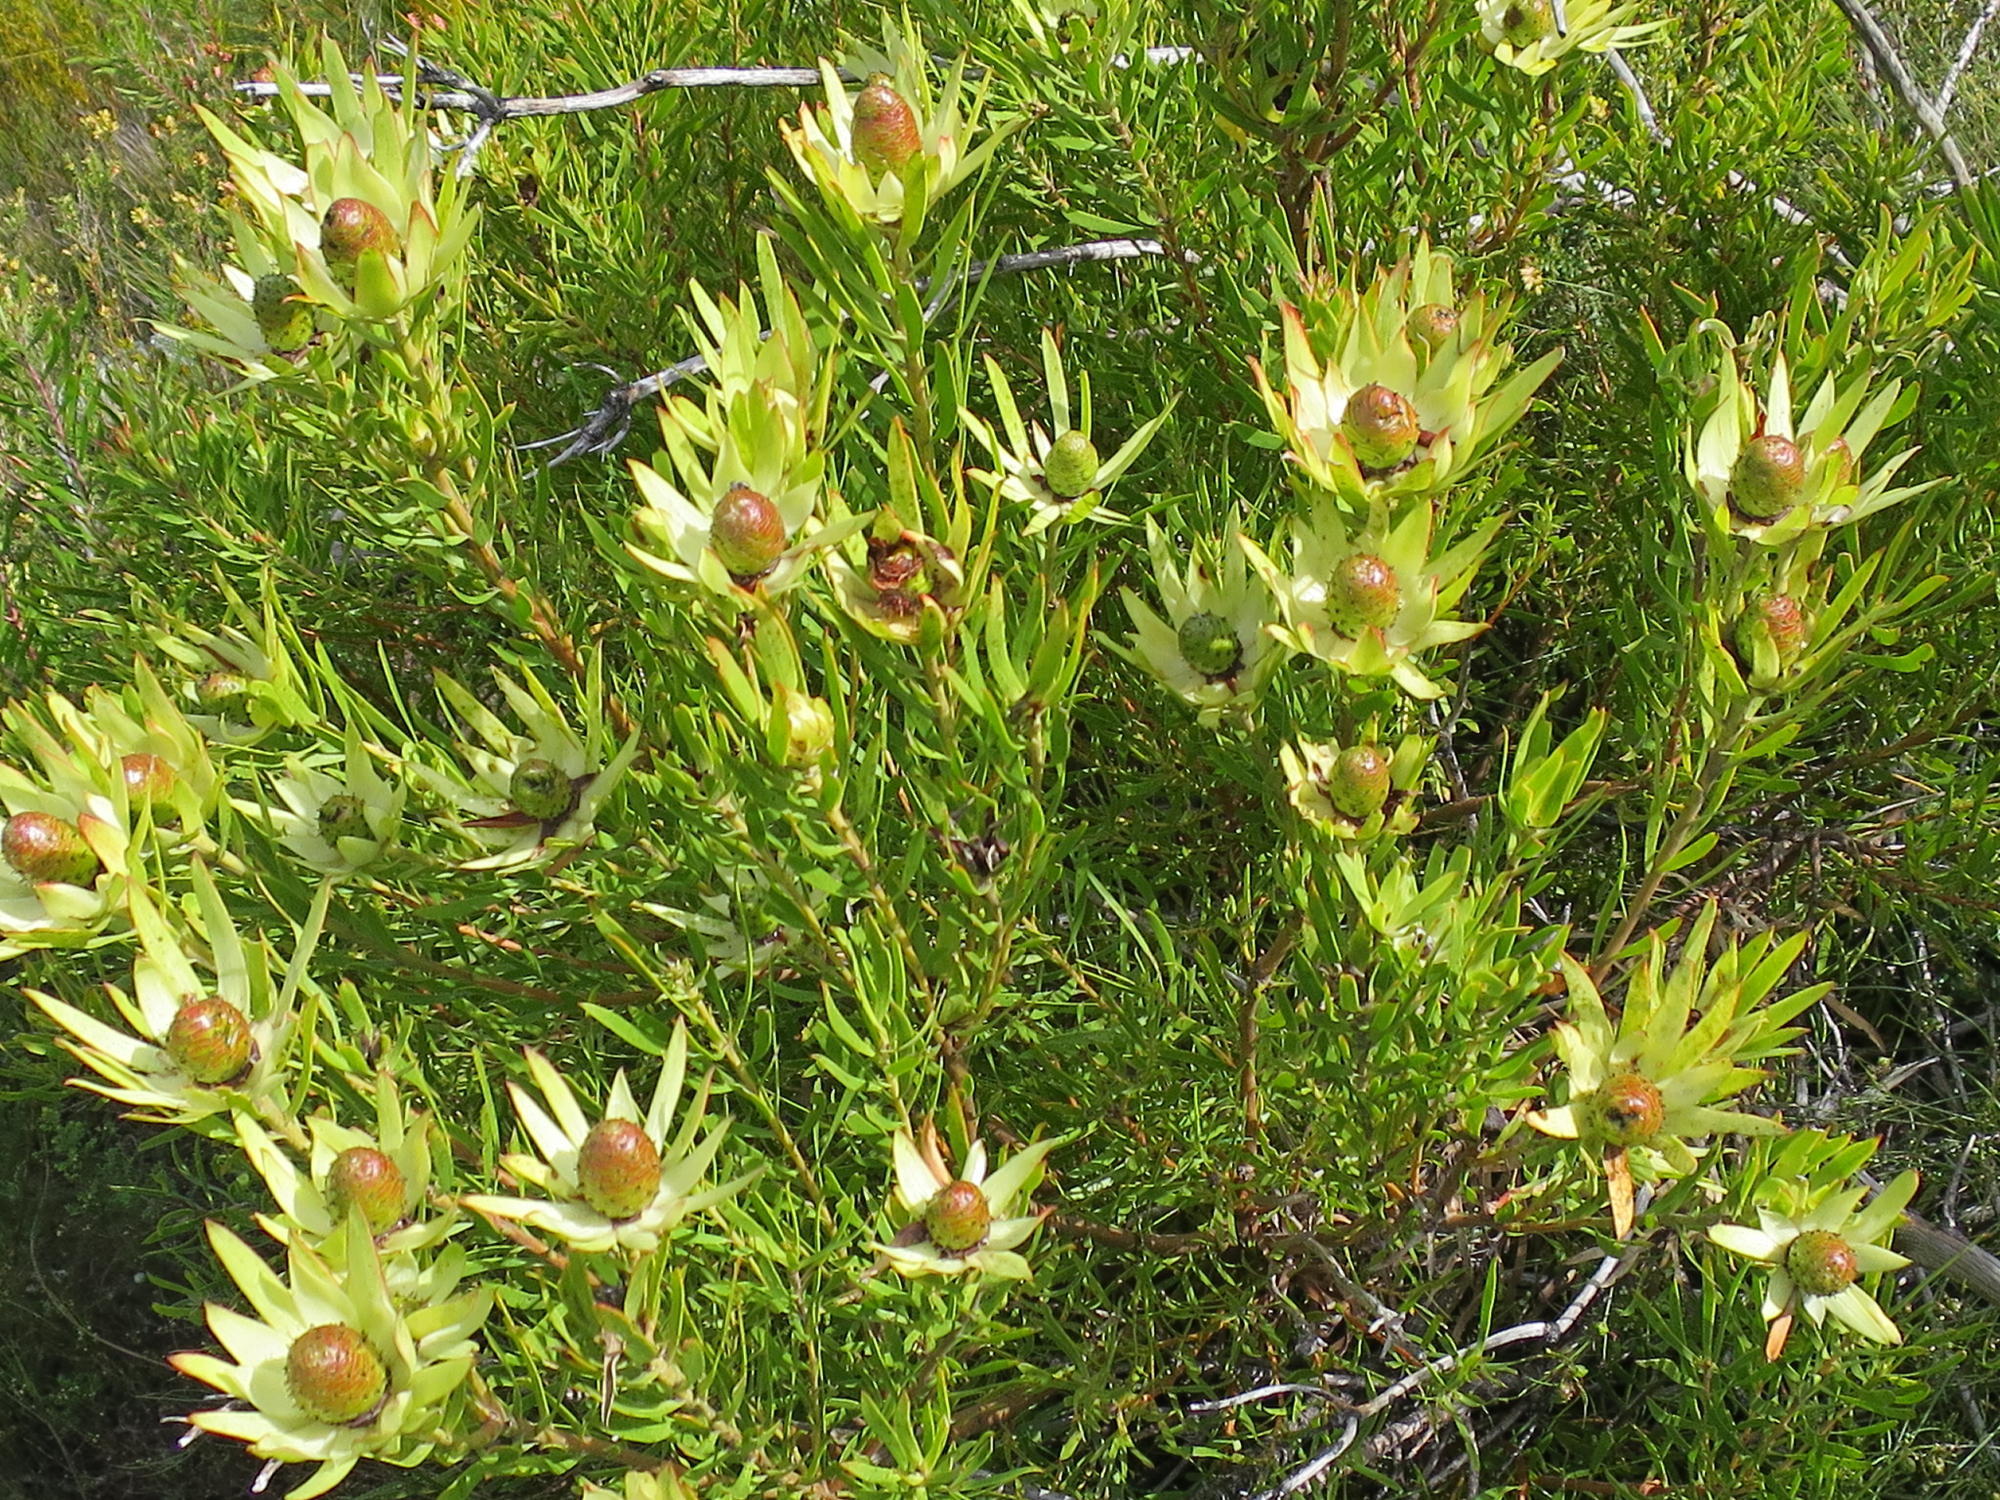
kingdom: Plantae
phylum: Tracheophyta
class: Magnoliopsida
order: Proteales
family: Proteaceae
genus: Leucadendron
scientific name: Leucadendron spissifolium
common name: Spear-leaf conebush
